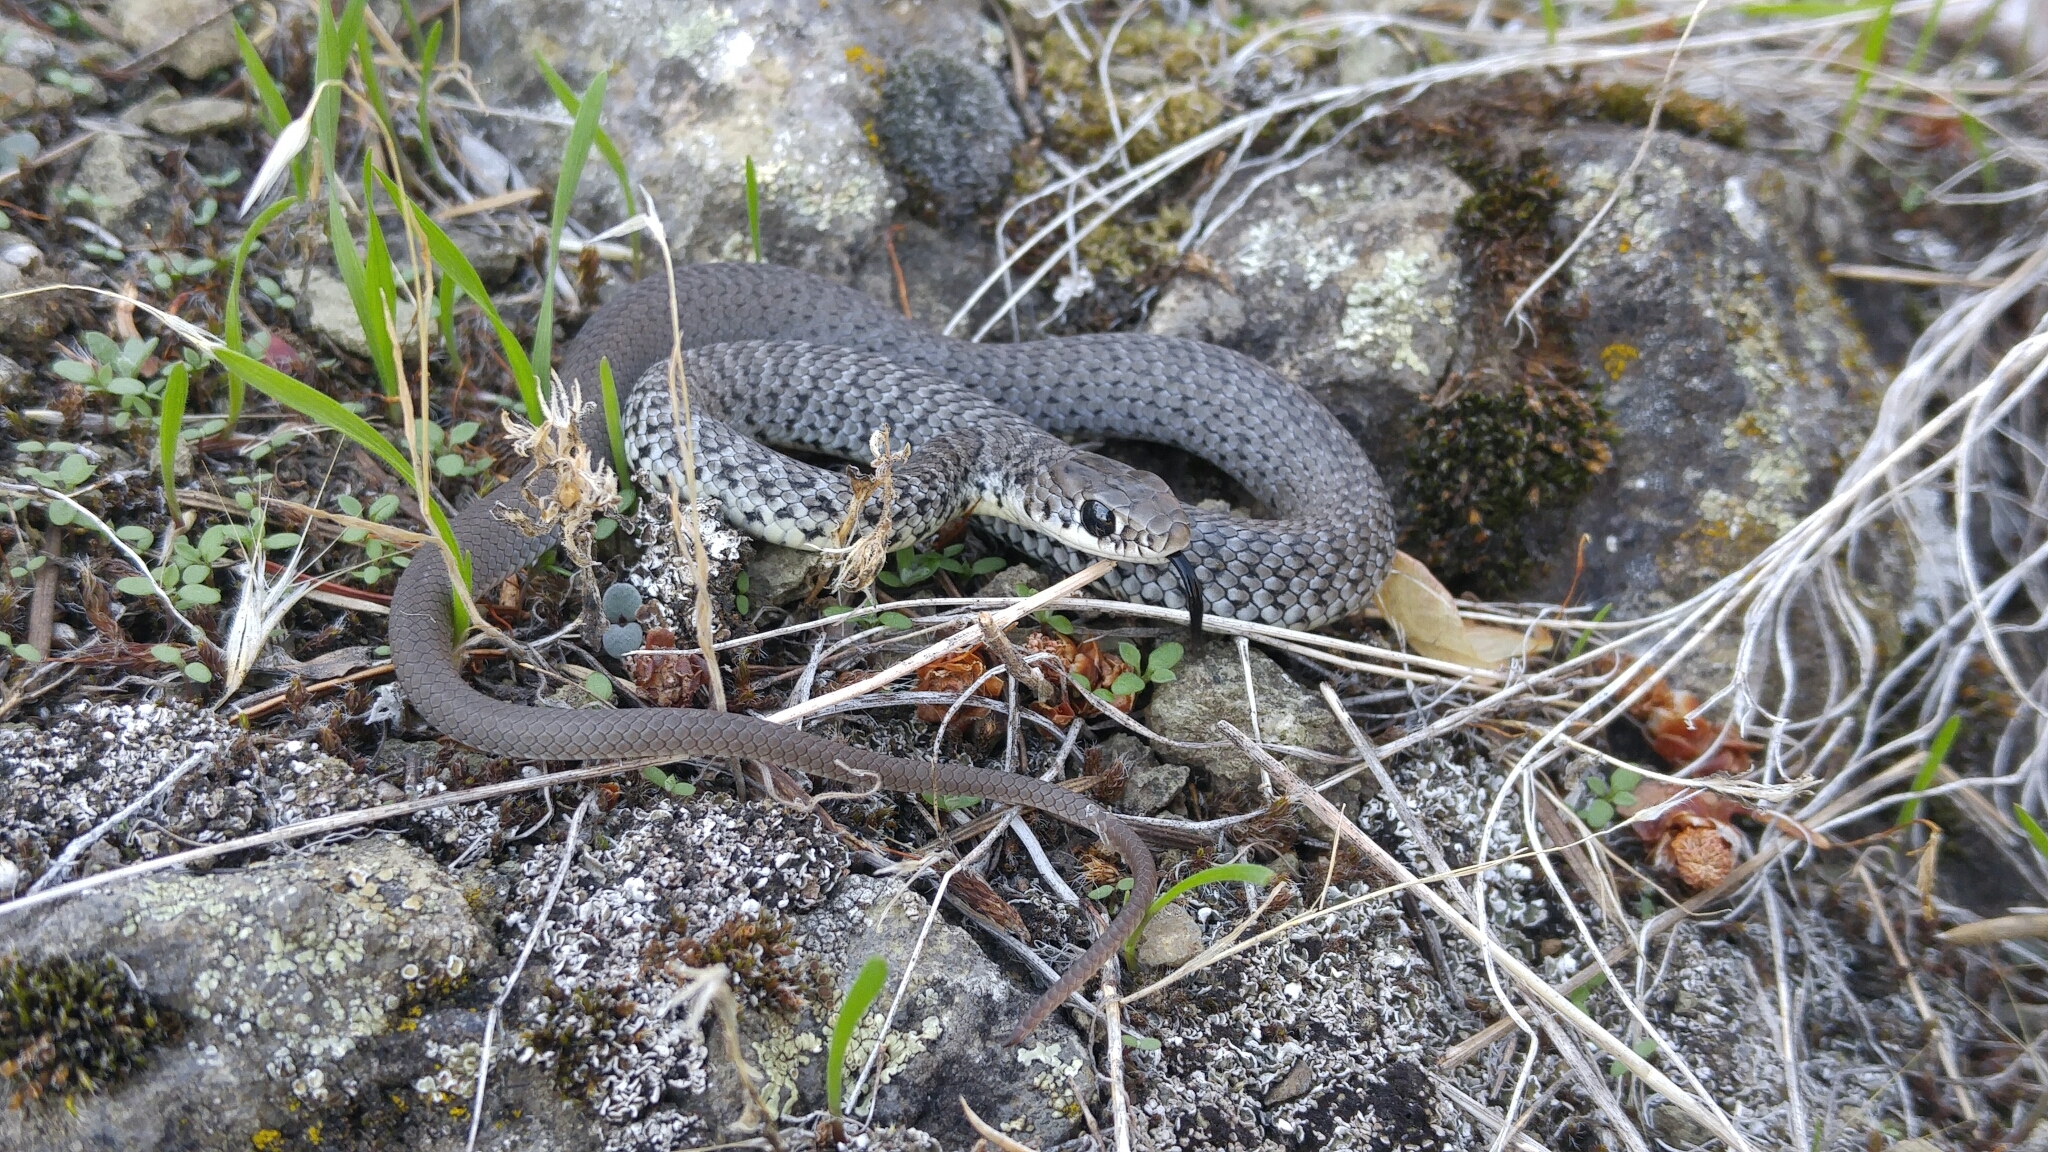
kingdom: Animalia
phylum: Chordata
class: Squamata
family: Colubridae
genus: Coluber
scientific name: Coluber constrictor
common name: Eastern racer
